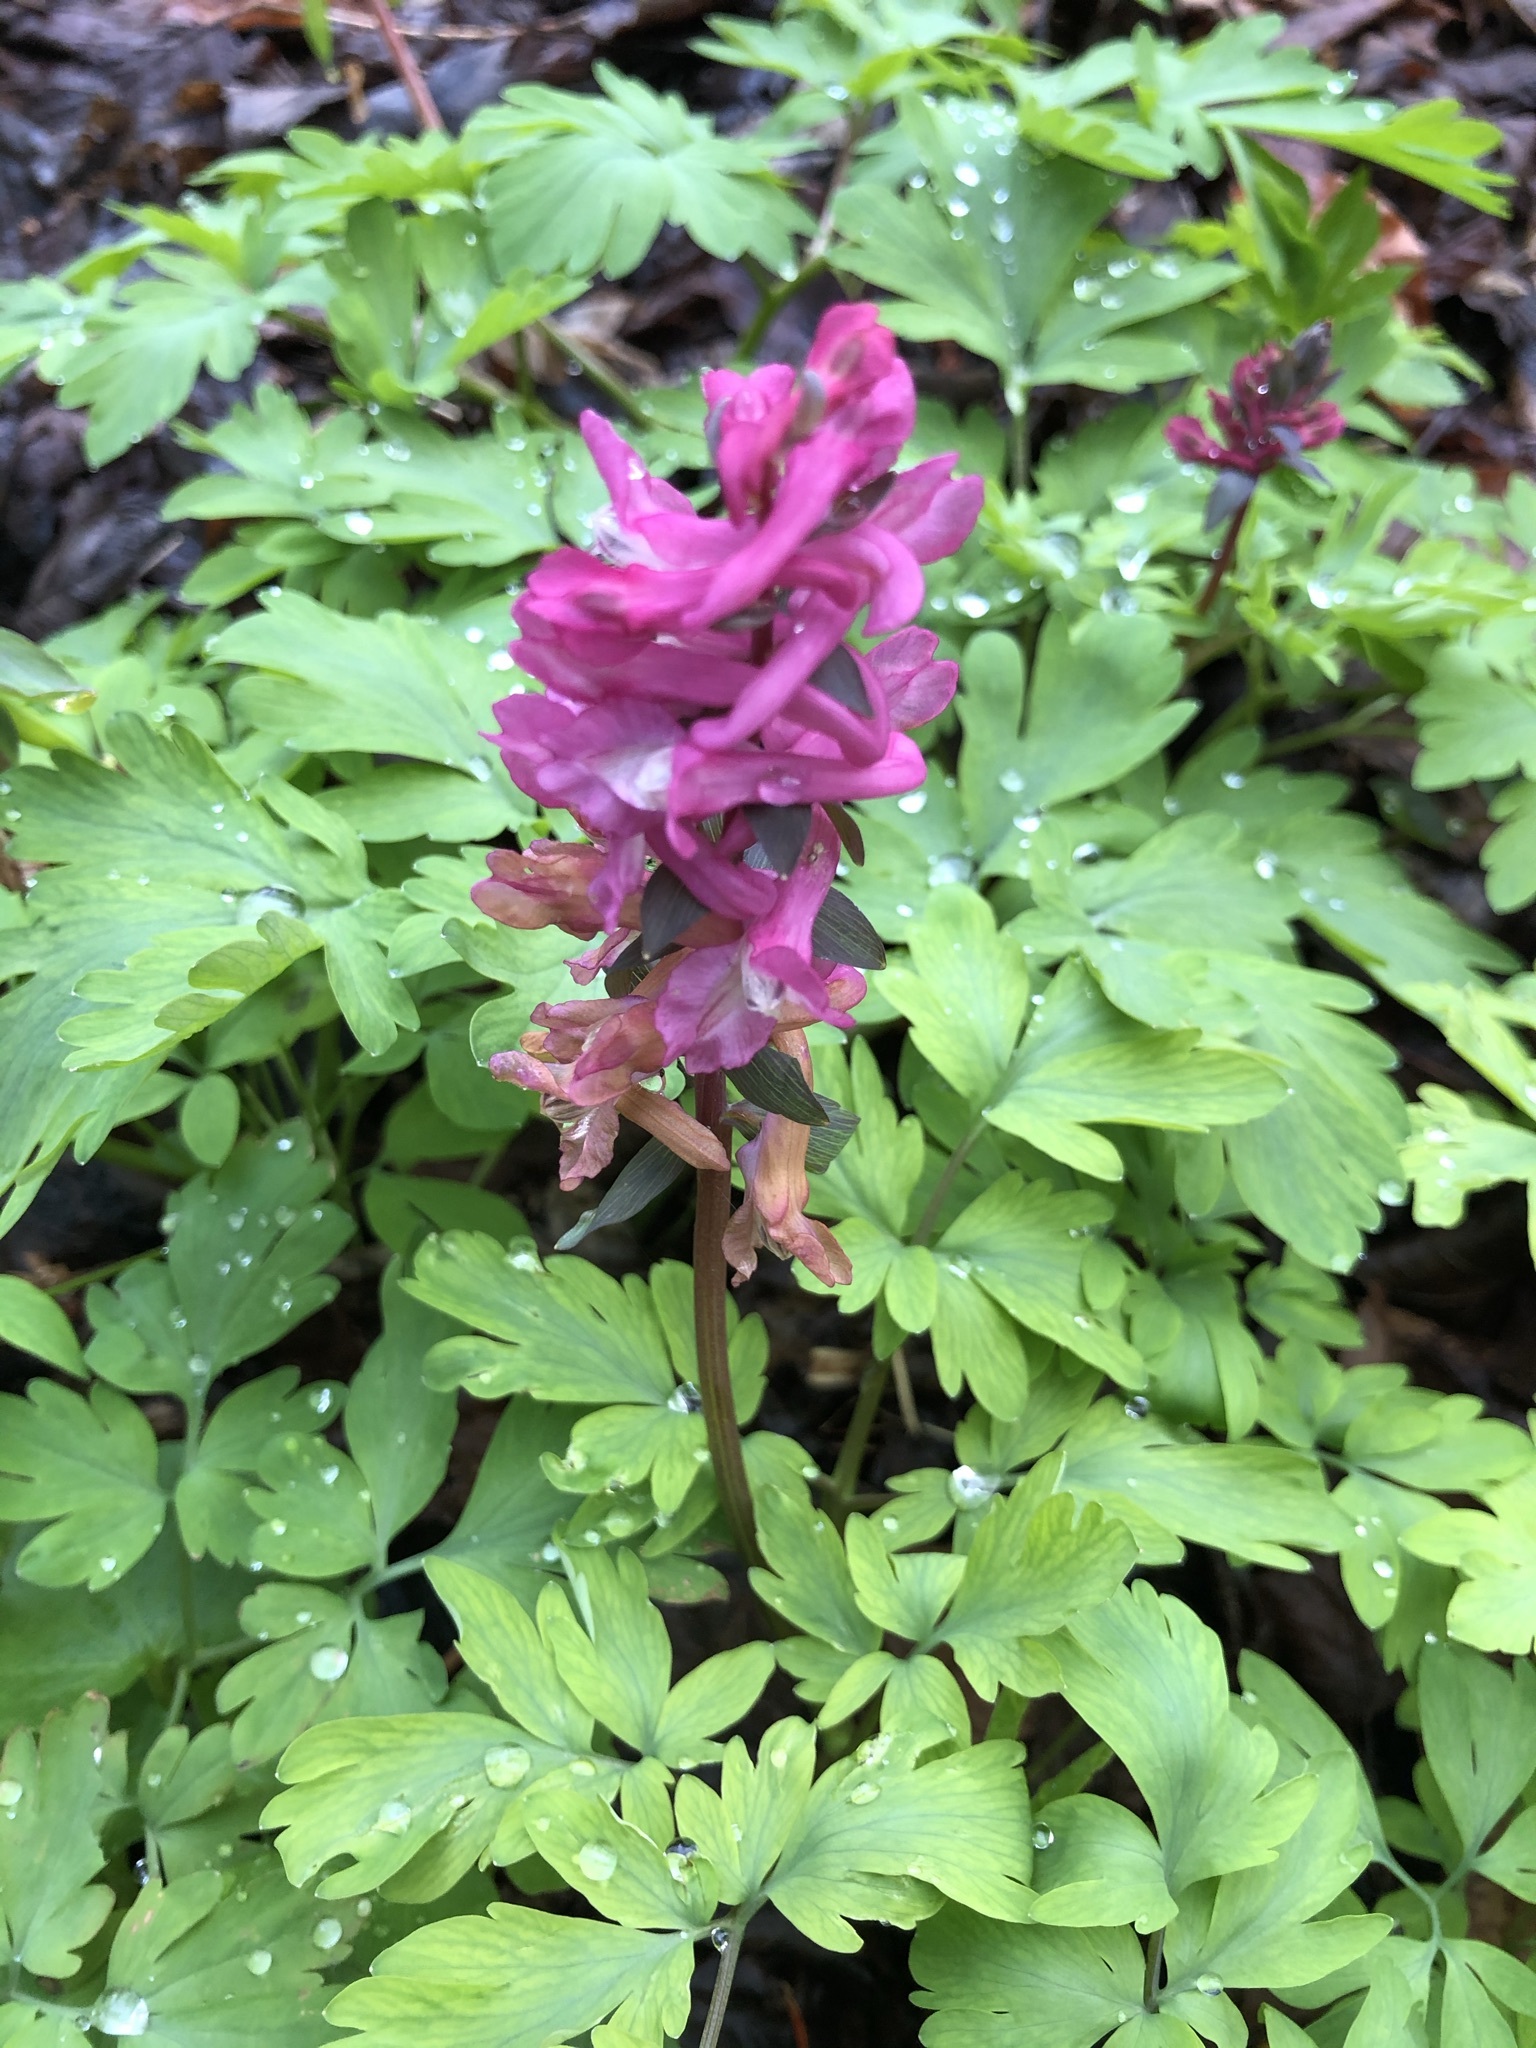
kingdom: Plantae
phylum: Tracheophyta
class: Magnoliopsida
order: Ranunculales
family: Papaveraceae
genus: Corydalis
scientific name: Corydalis cava
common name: Hollowroot
